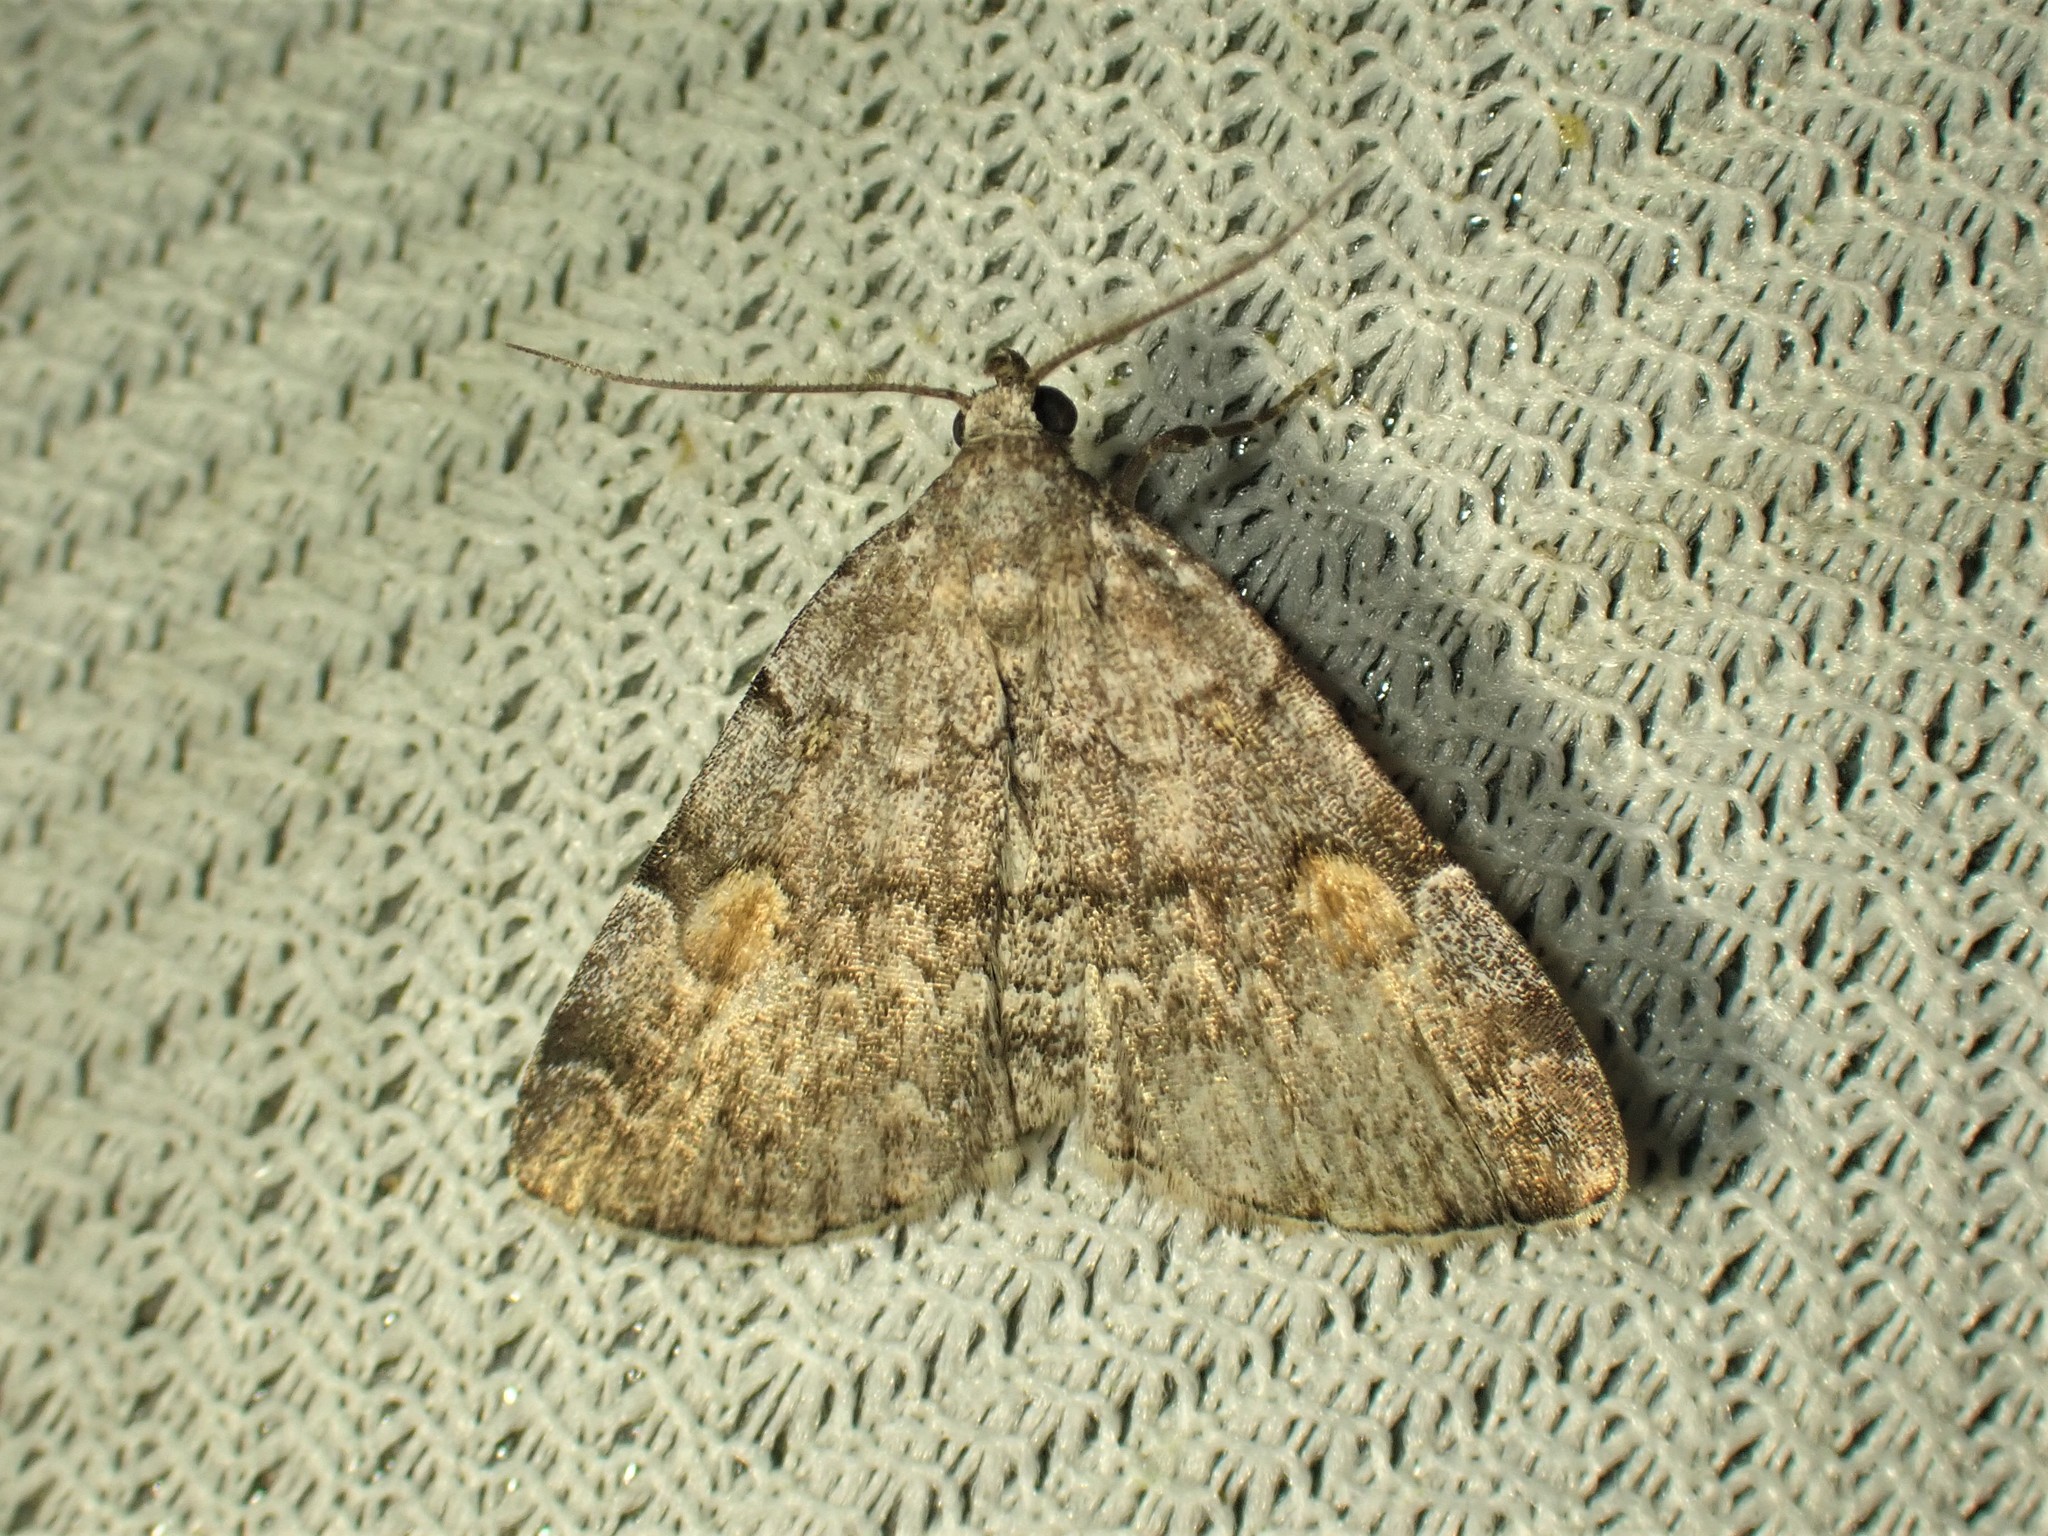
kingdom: Animalia
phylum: Arthropoda
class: Insecta
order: Lepidoptera
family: Erebidae
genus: Idia
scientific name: Idia americalis
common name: American idia moth
